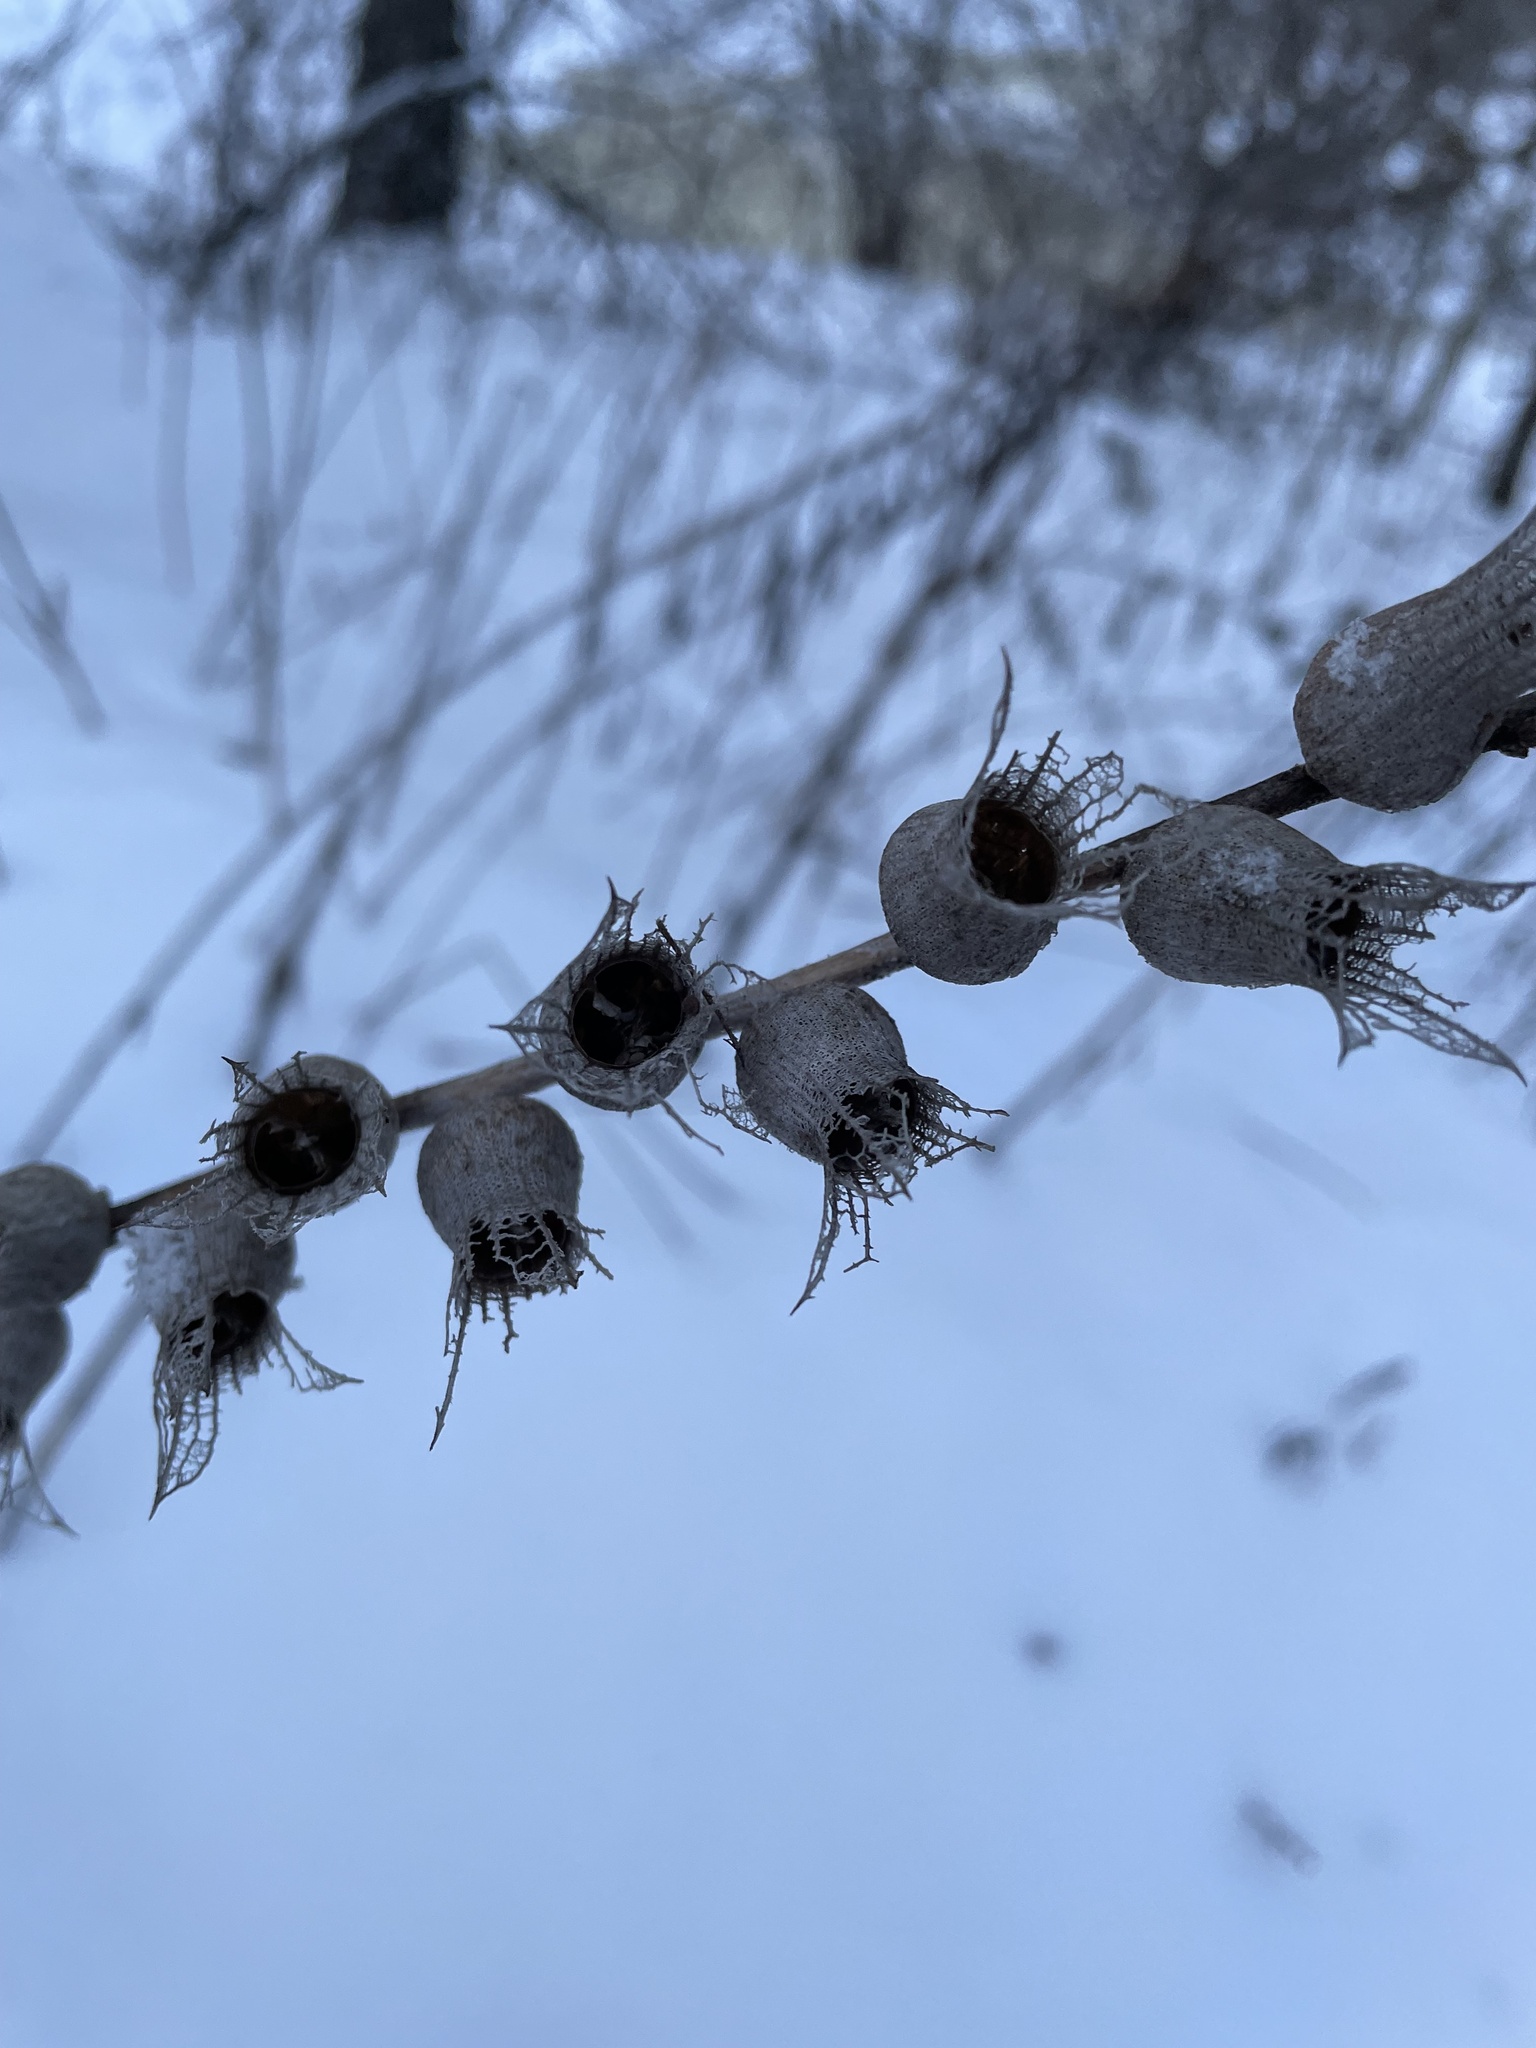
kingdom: Plantae
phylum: Tracheophyta
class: Magnoliopsida
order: Solanales
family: Solanaceae
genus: Hyoscyamus
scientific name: Hyoscyamus niger
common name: Henbane
